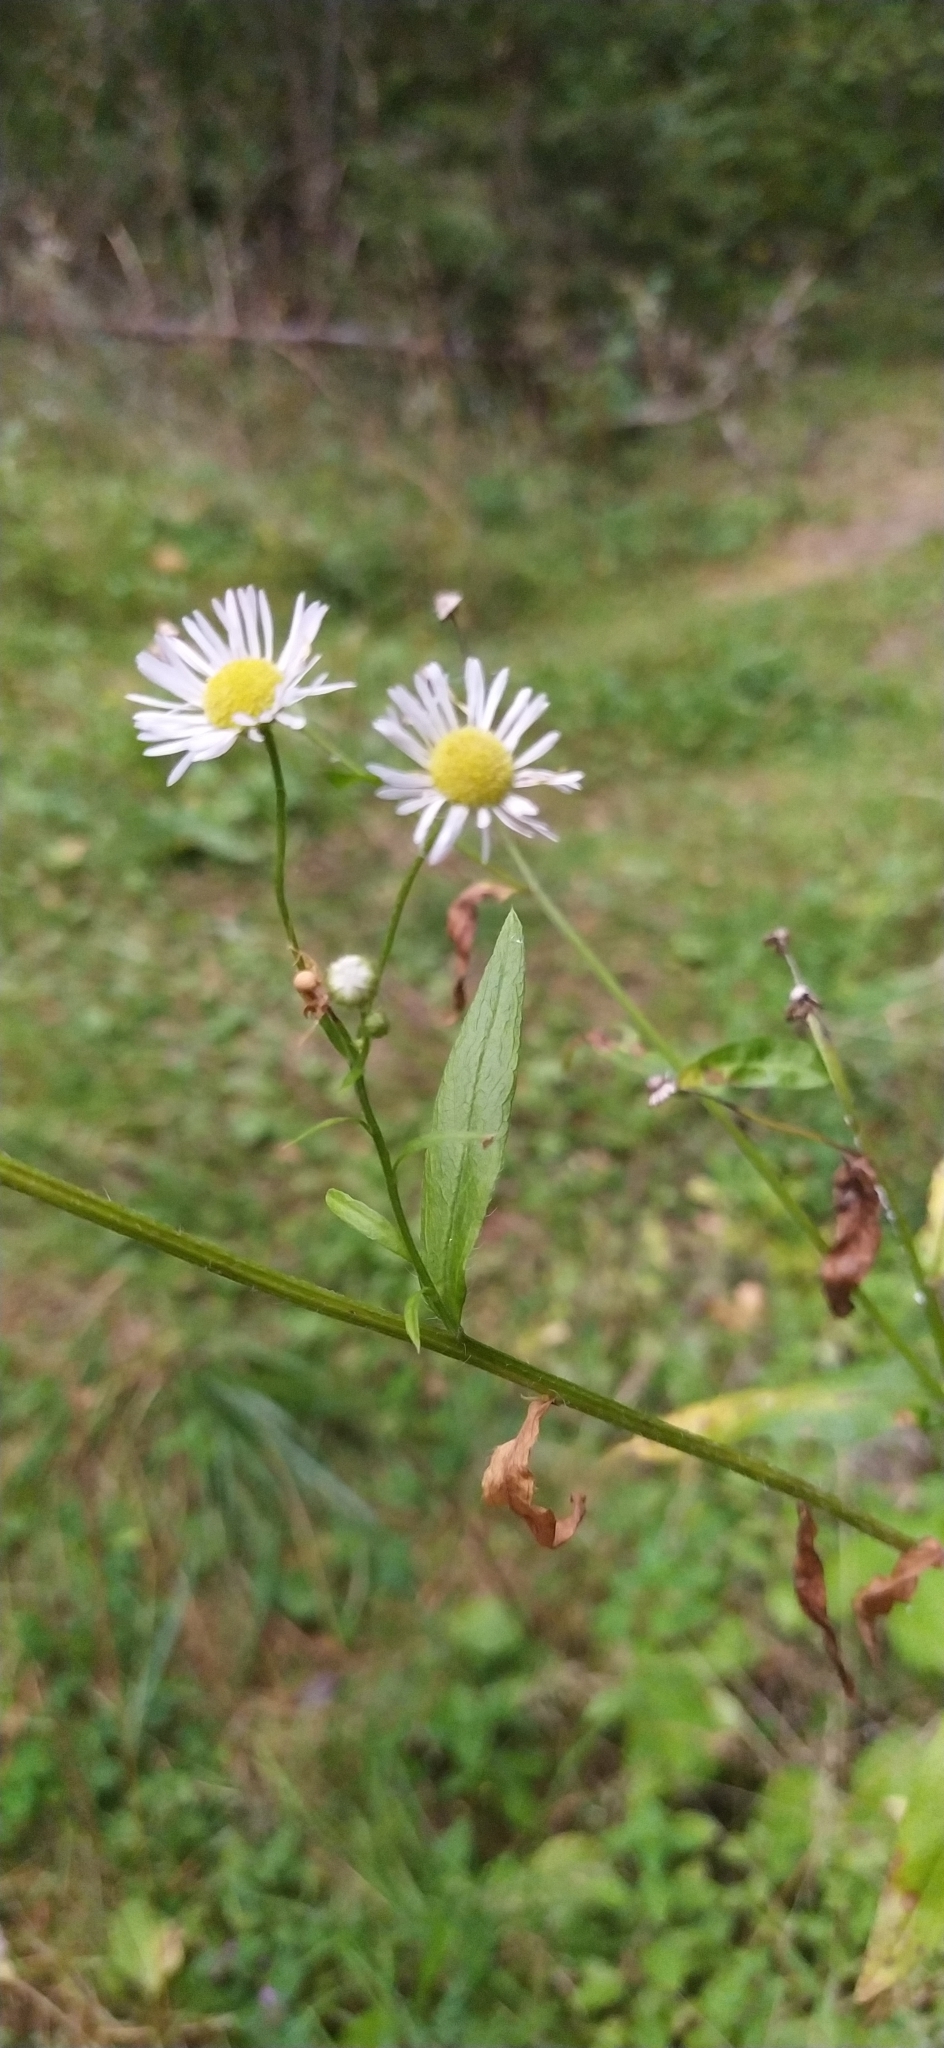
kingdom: Plantae
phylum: Tracheophyta
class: Magnoliopsida
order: Asterales
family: Asteraceae
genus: Erigeron
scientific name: Erigeron annuus
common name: Tall fleabane
